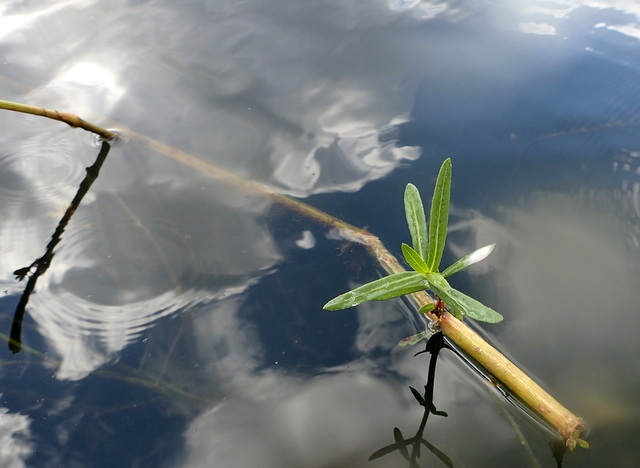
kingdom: Plantae
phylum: Tracheophyta
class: Magnoliopsida
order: Caryophyllales
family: Amaranthaceae
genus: Alternanthera
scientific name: Alternanthera philoxeroides
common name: Alligatorweed
